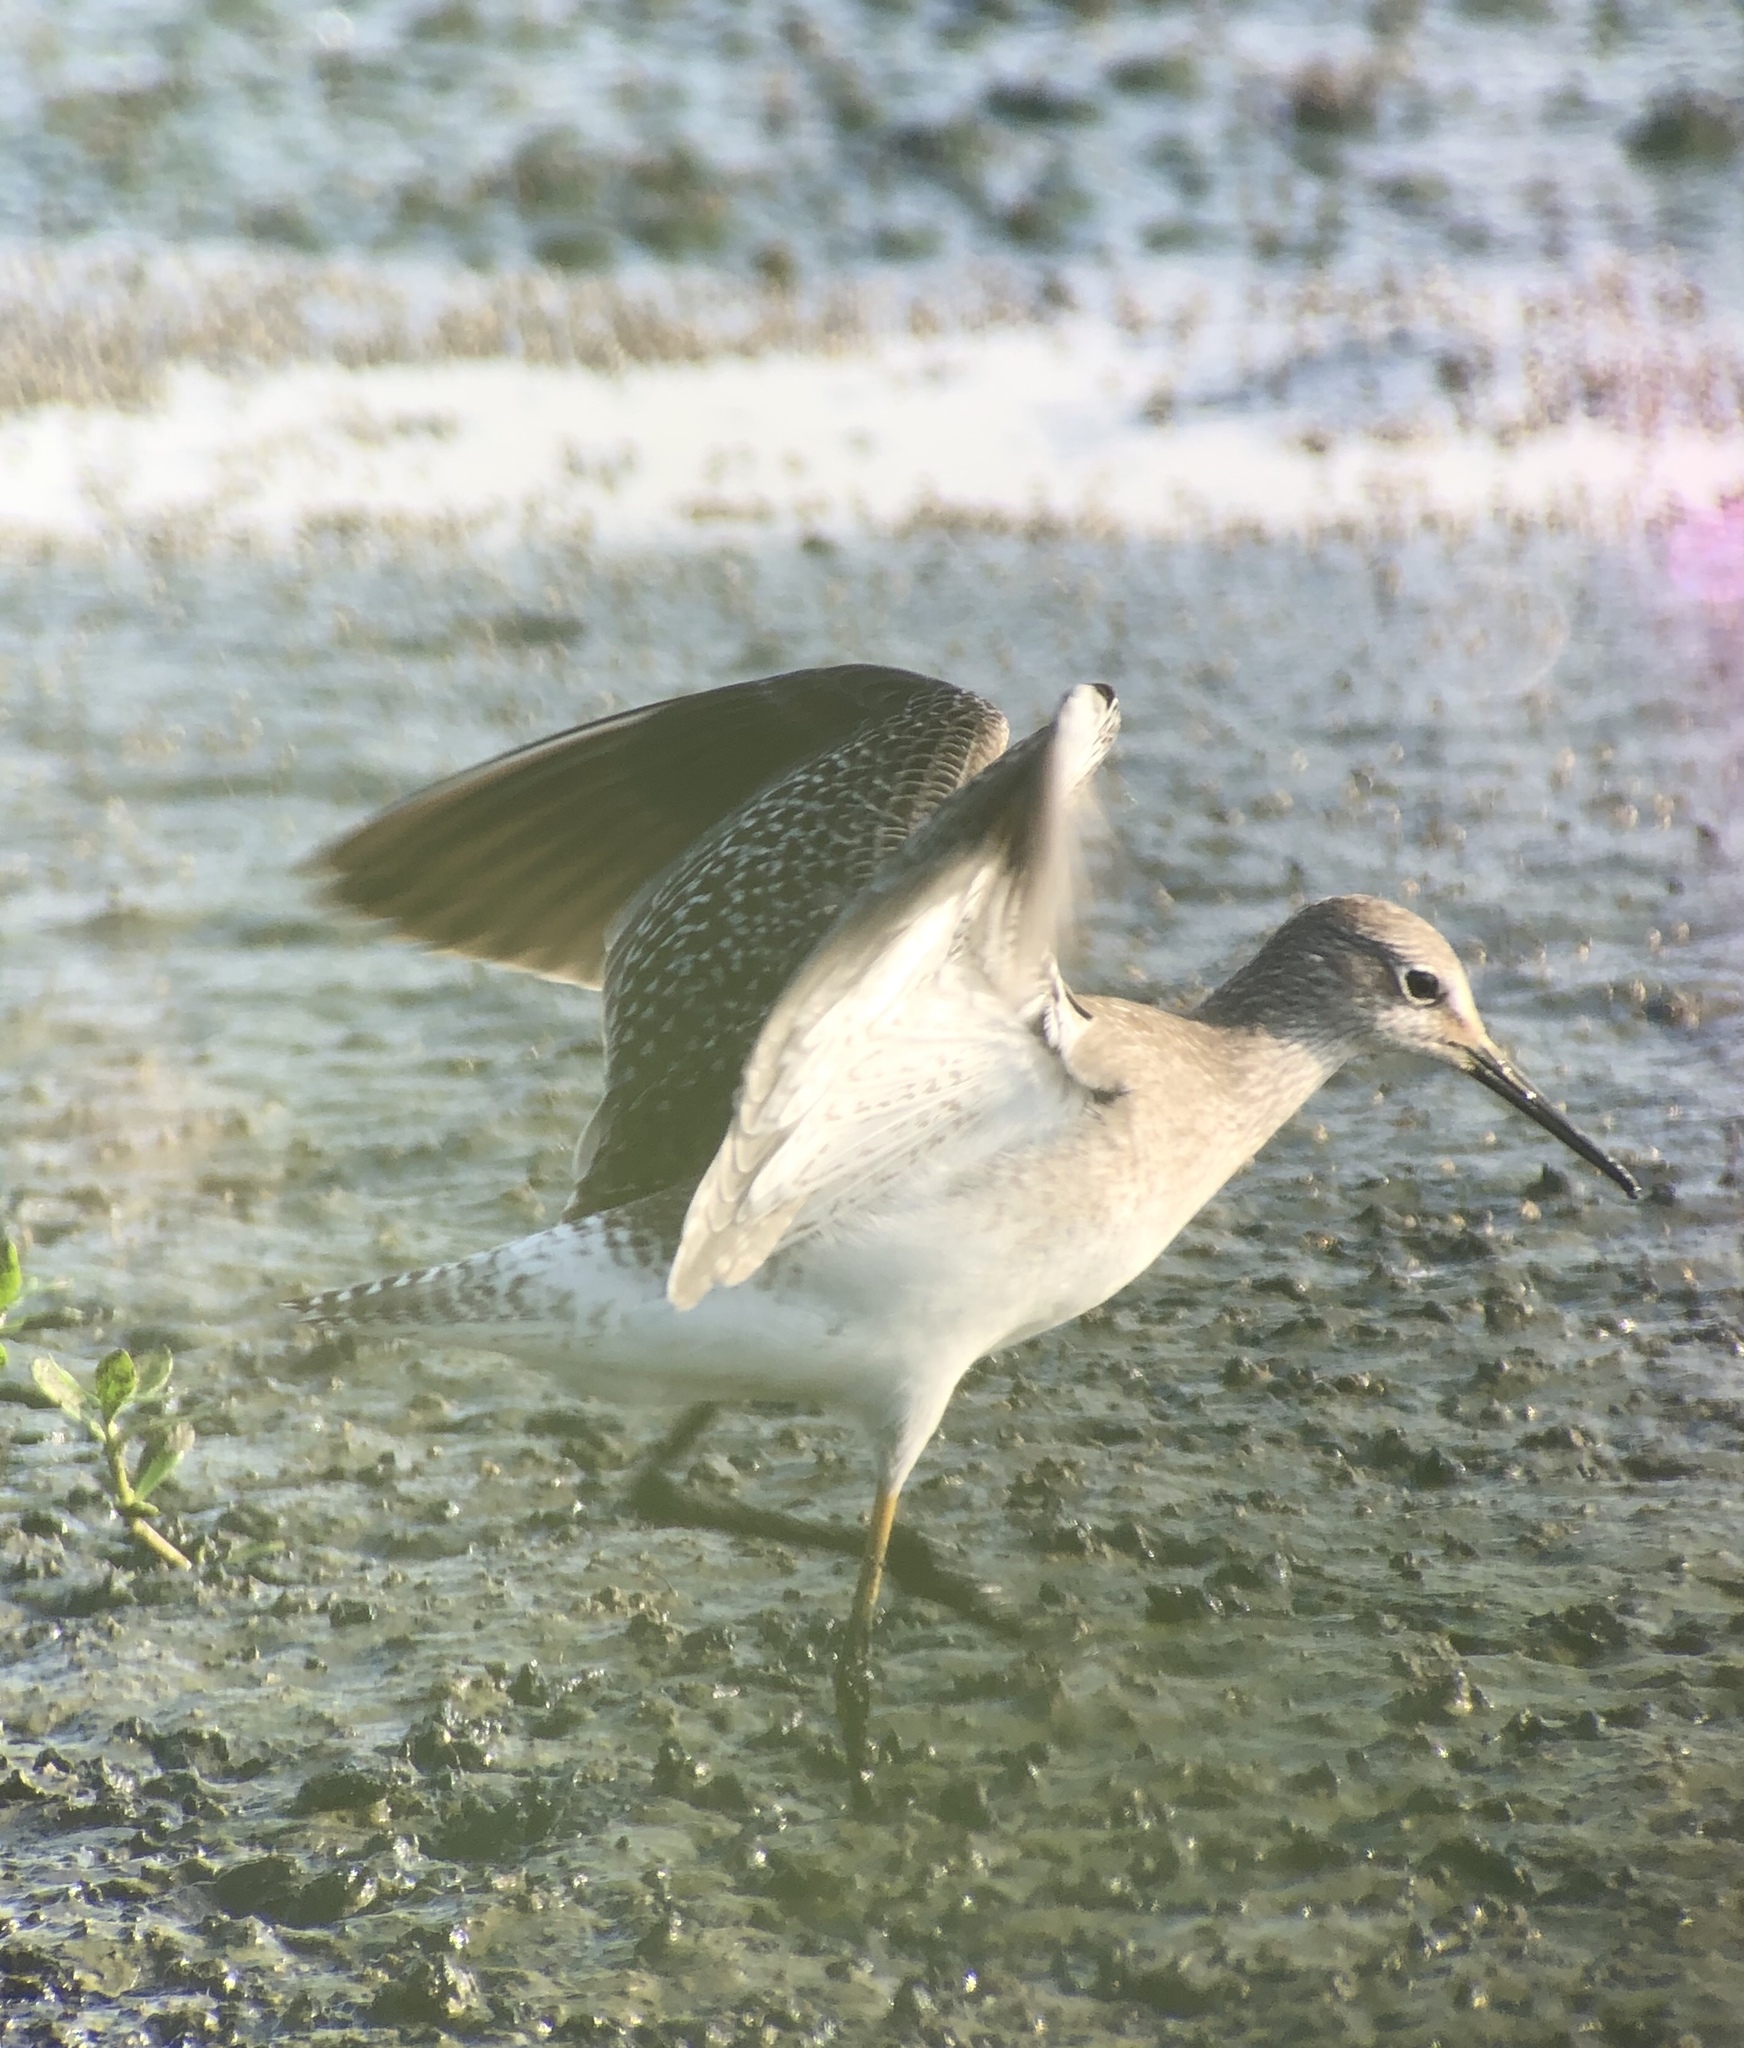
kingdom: Animalia
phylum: Chordata
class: Aves
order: Charadriiformes
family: Scolopacidae
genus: Tringa
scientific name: Tringa flavipes
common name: Lesser yellowlegs
